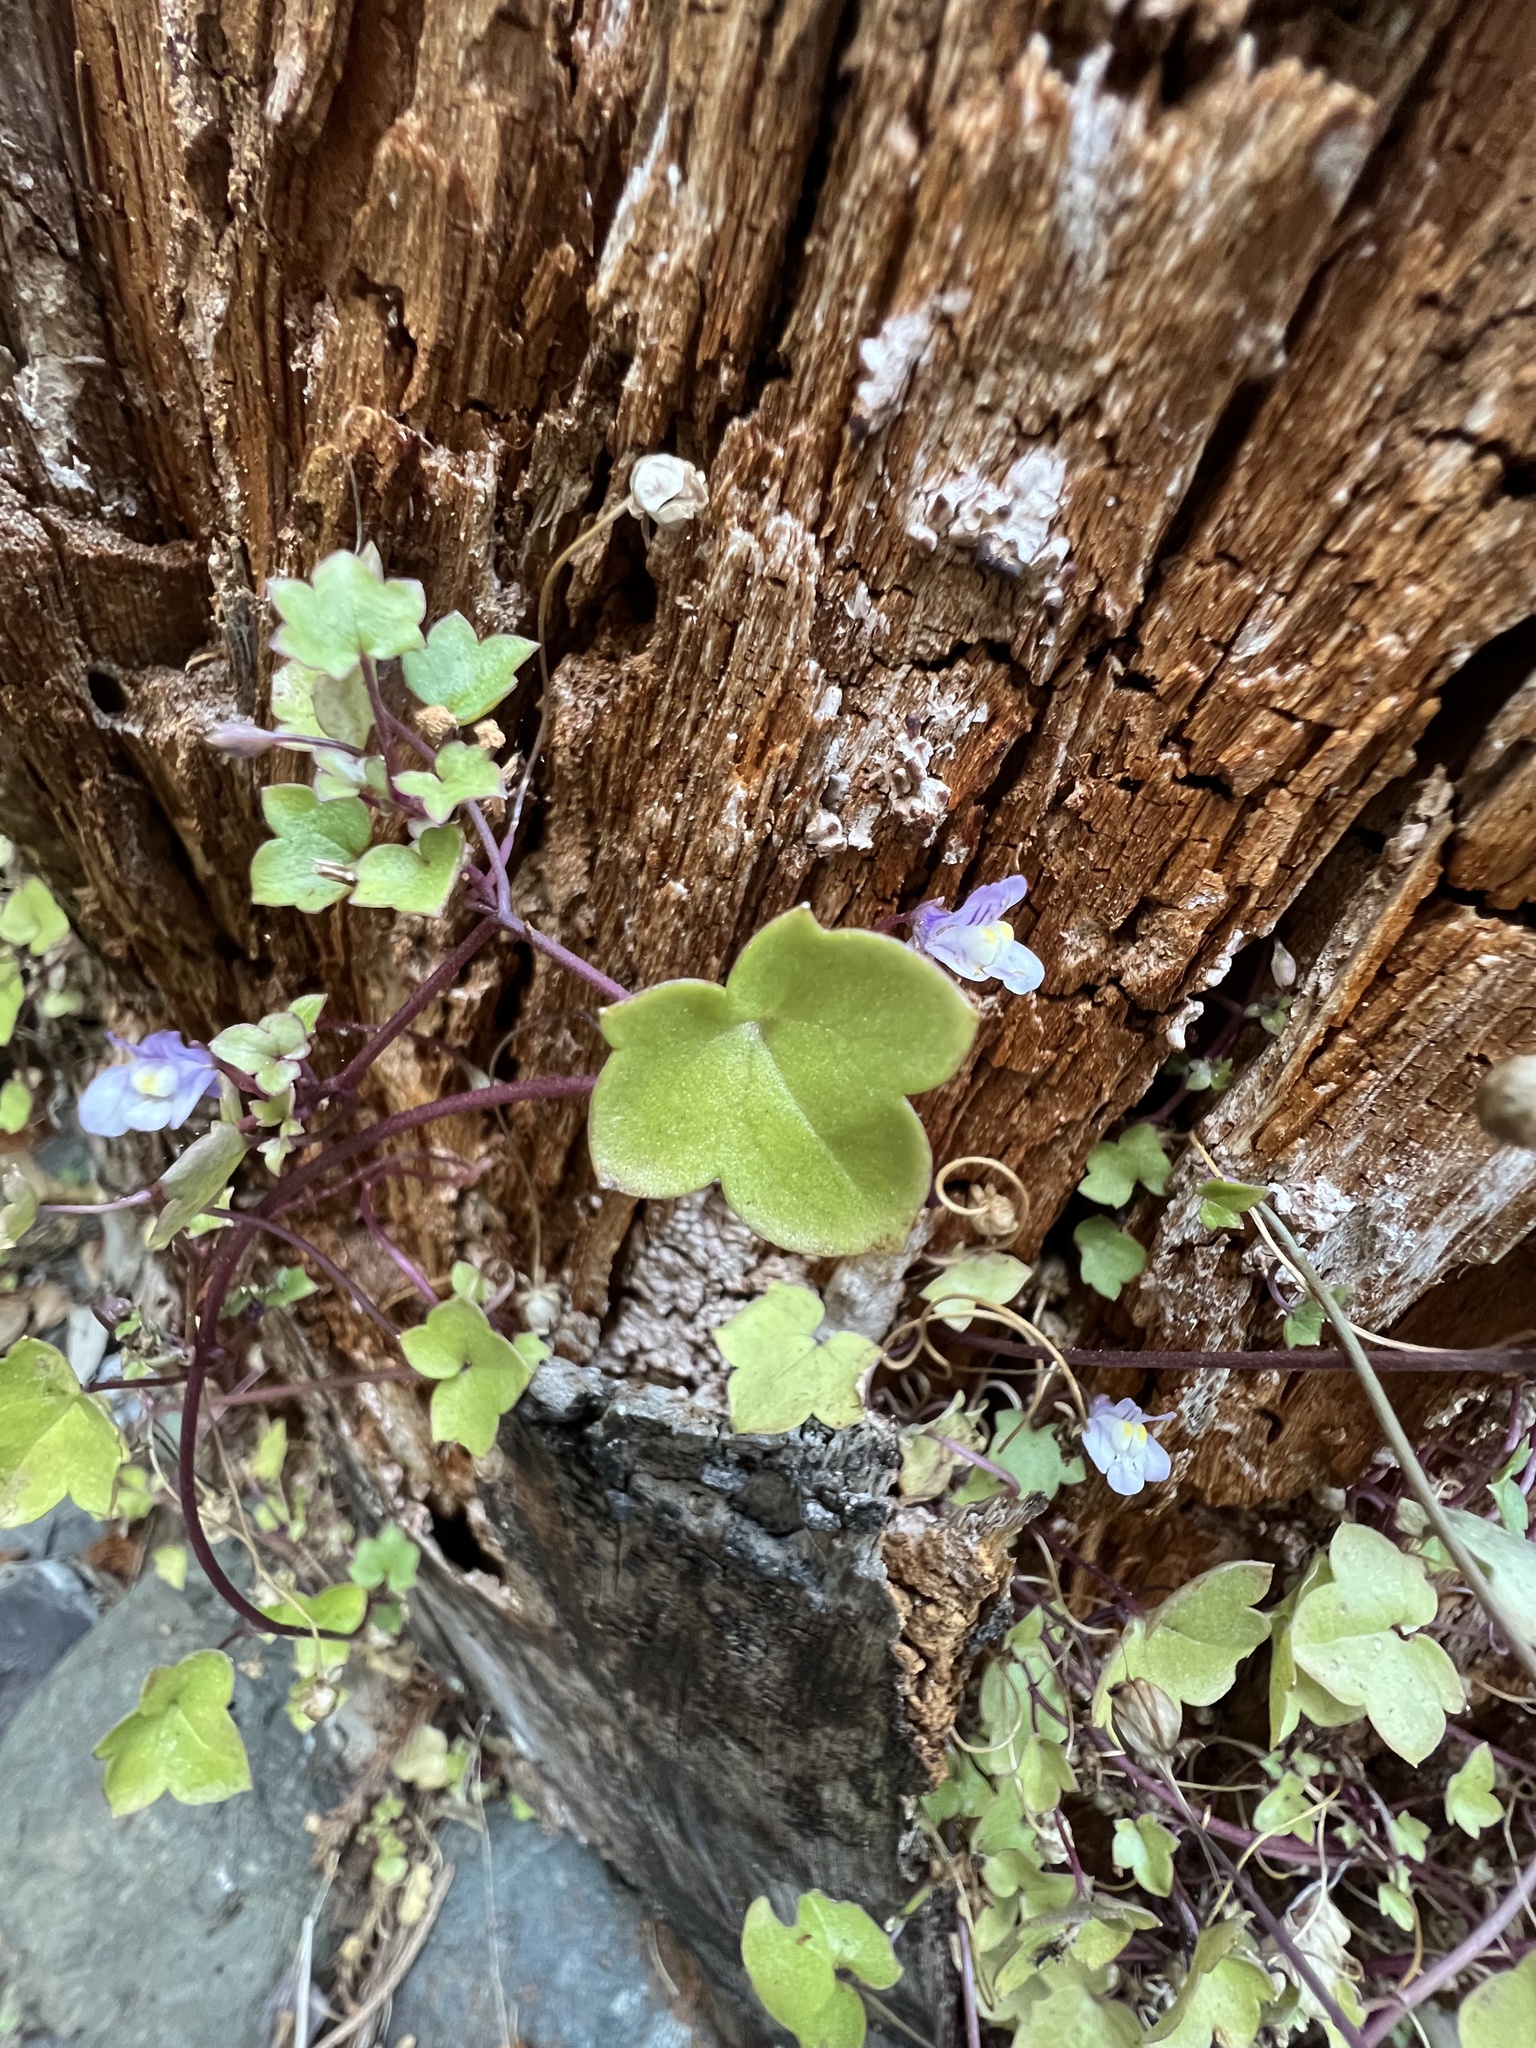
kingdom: Plantae
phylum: Tracheophyta
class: Magnoliopsida
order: Lamiales
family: Plantaginaceae
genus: Cymbalaria
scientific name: Cymbalaria muralis
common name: Ivy-leaved toadflax
